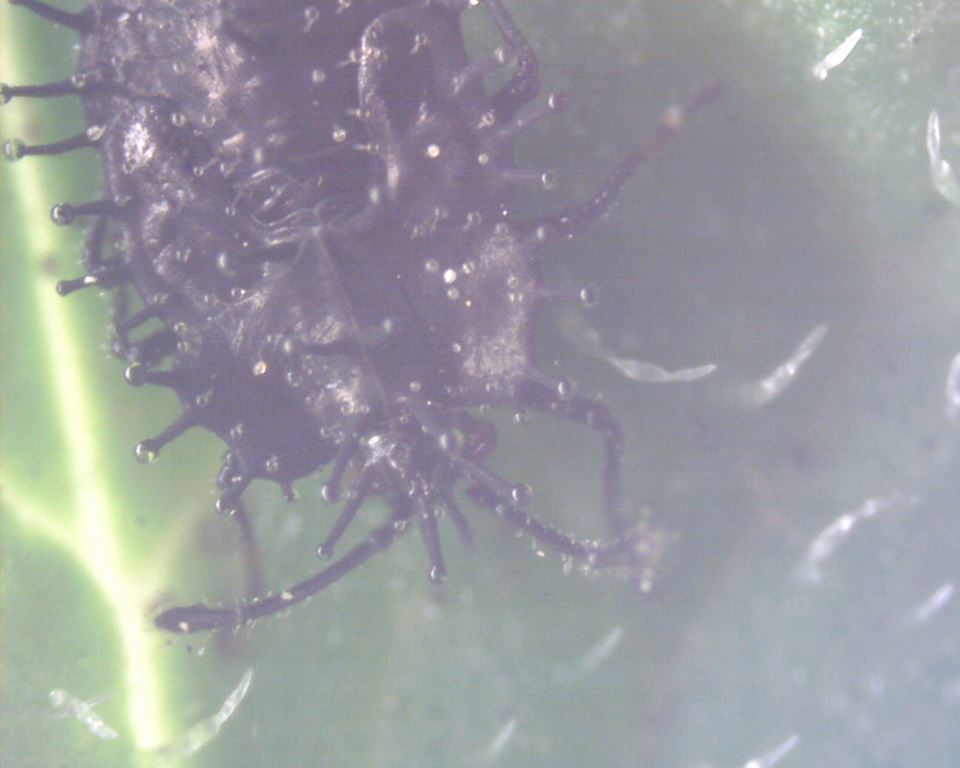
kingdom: Animalia
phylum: Arthropoda
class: Insecta
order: Hemiptera
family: Tingidae
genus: Cochlochila
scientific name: Cochlochila bullita
